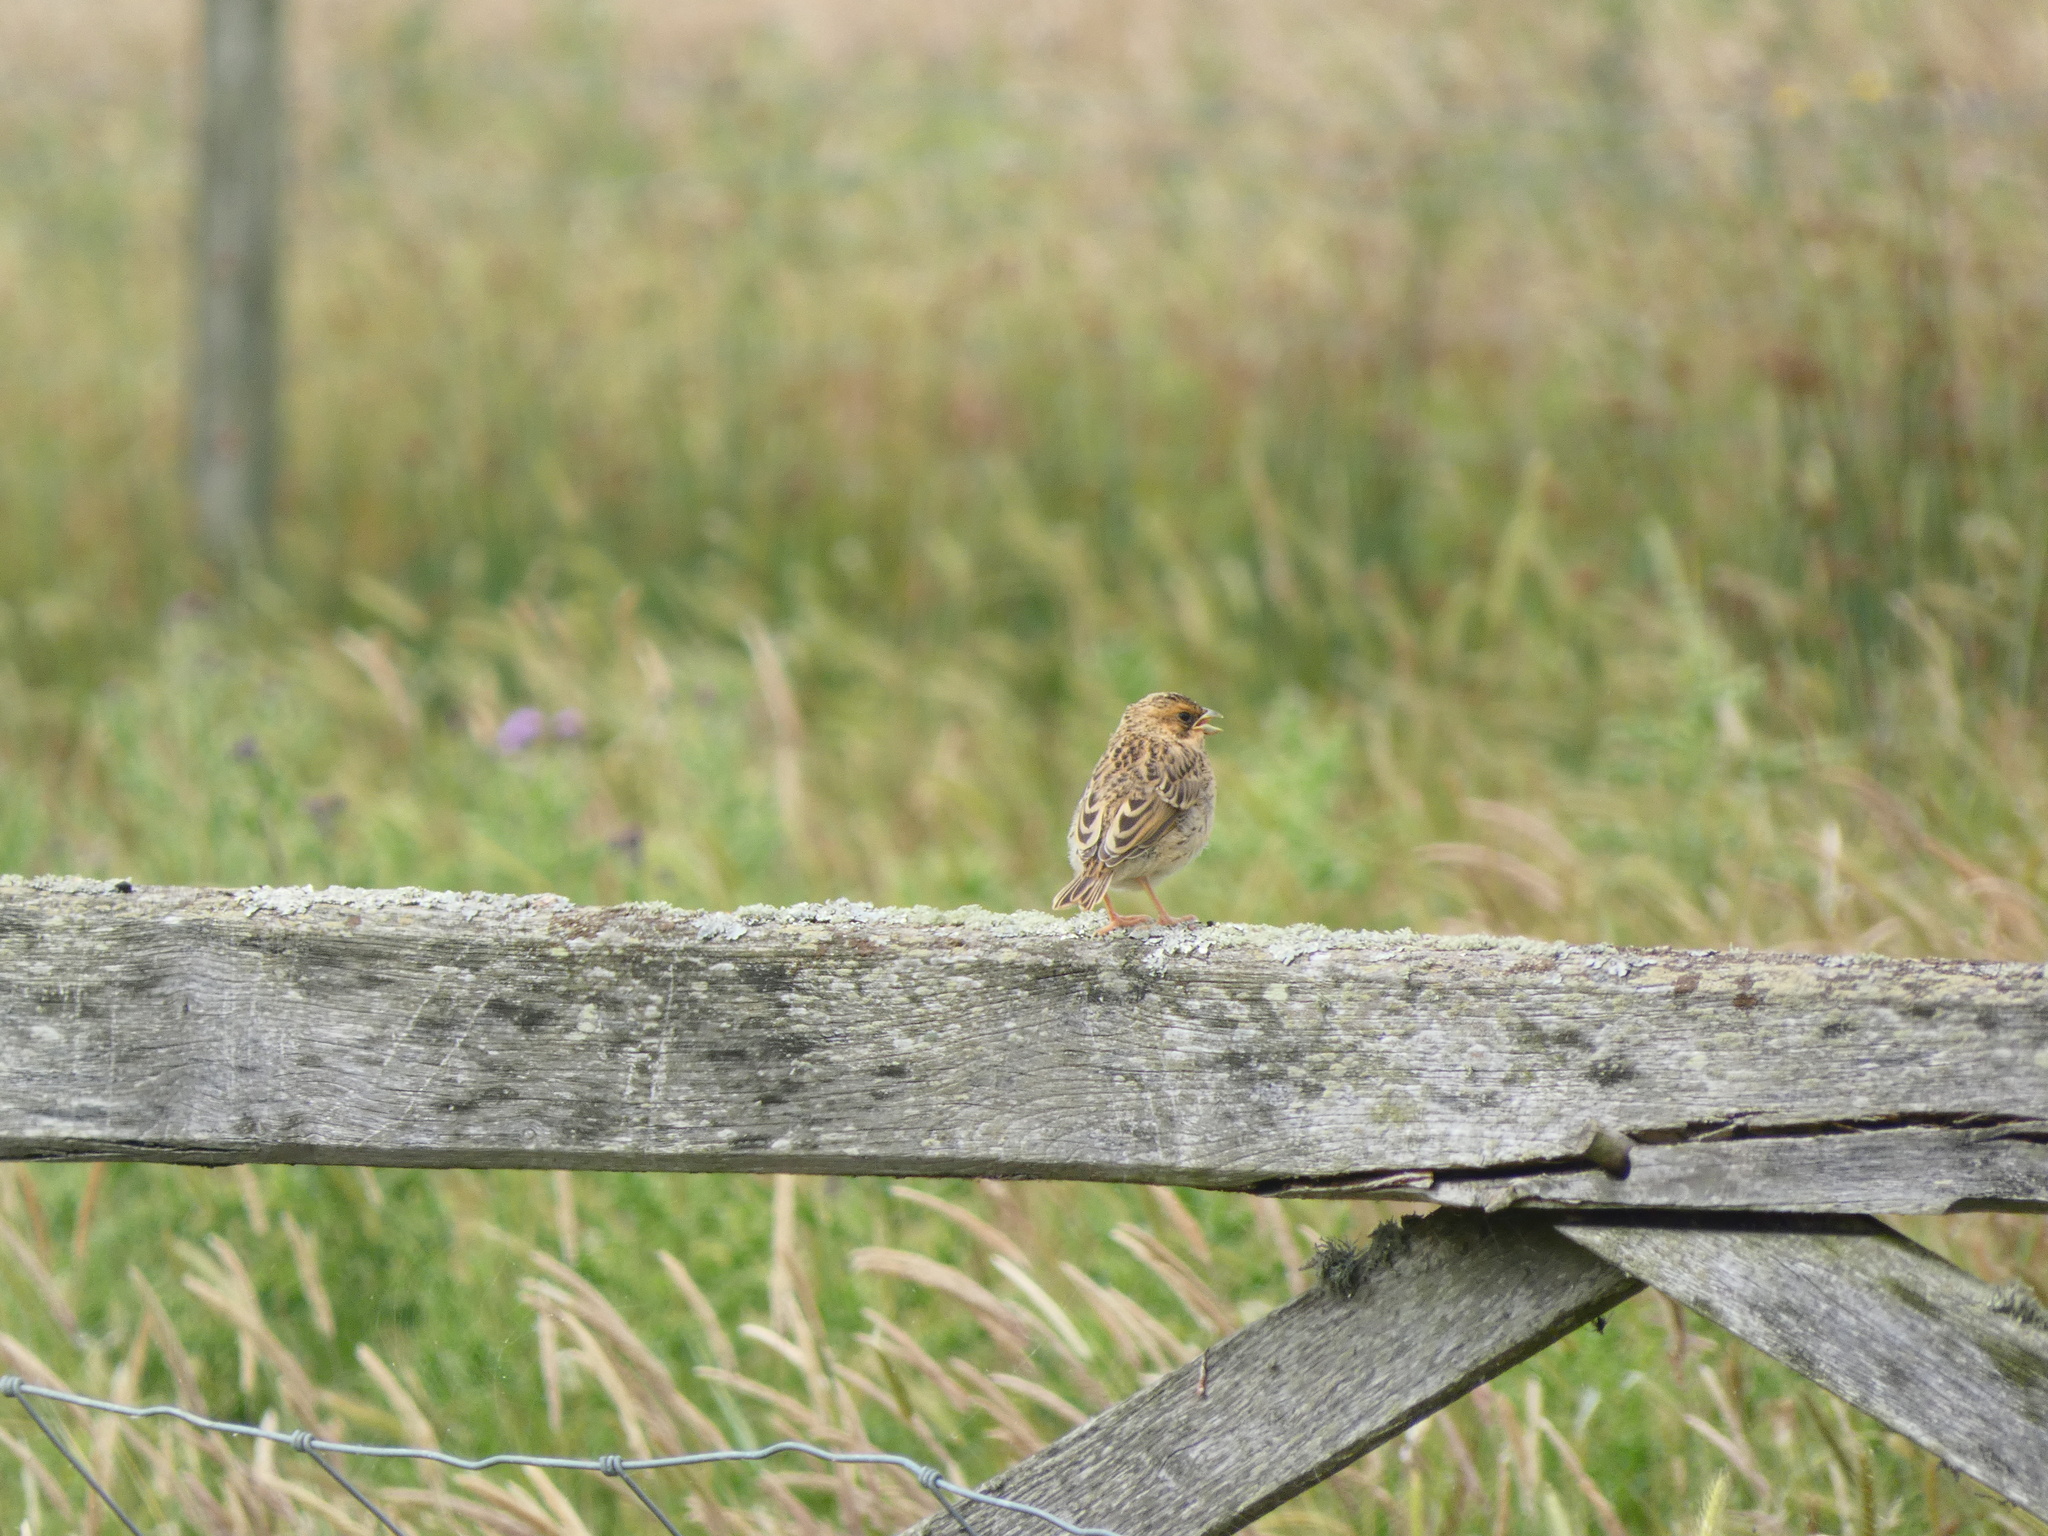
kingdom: Animalia
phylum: Chordata
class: Aves
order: Passeriformes
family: Emberizidae
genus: Emberiza
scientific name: Emberiza calandra
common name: Corn bunting
